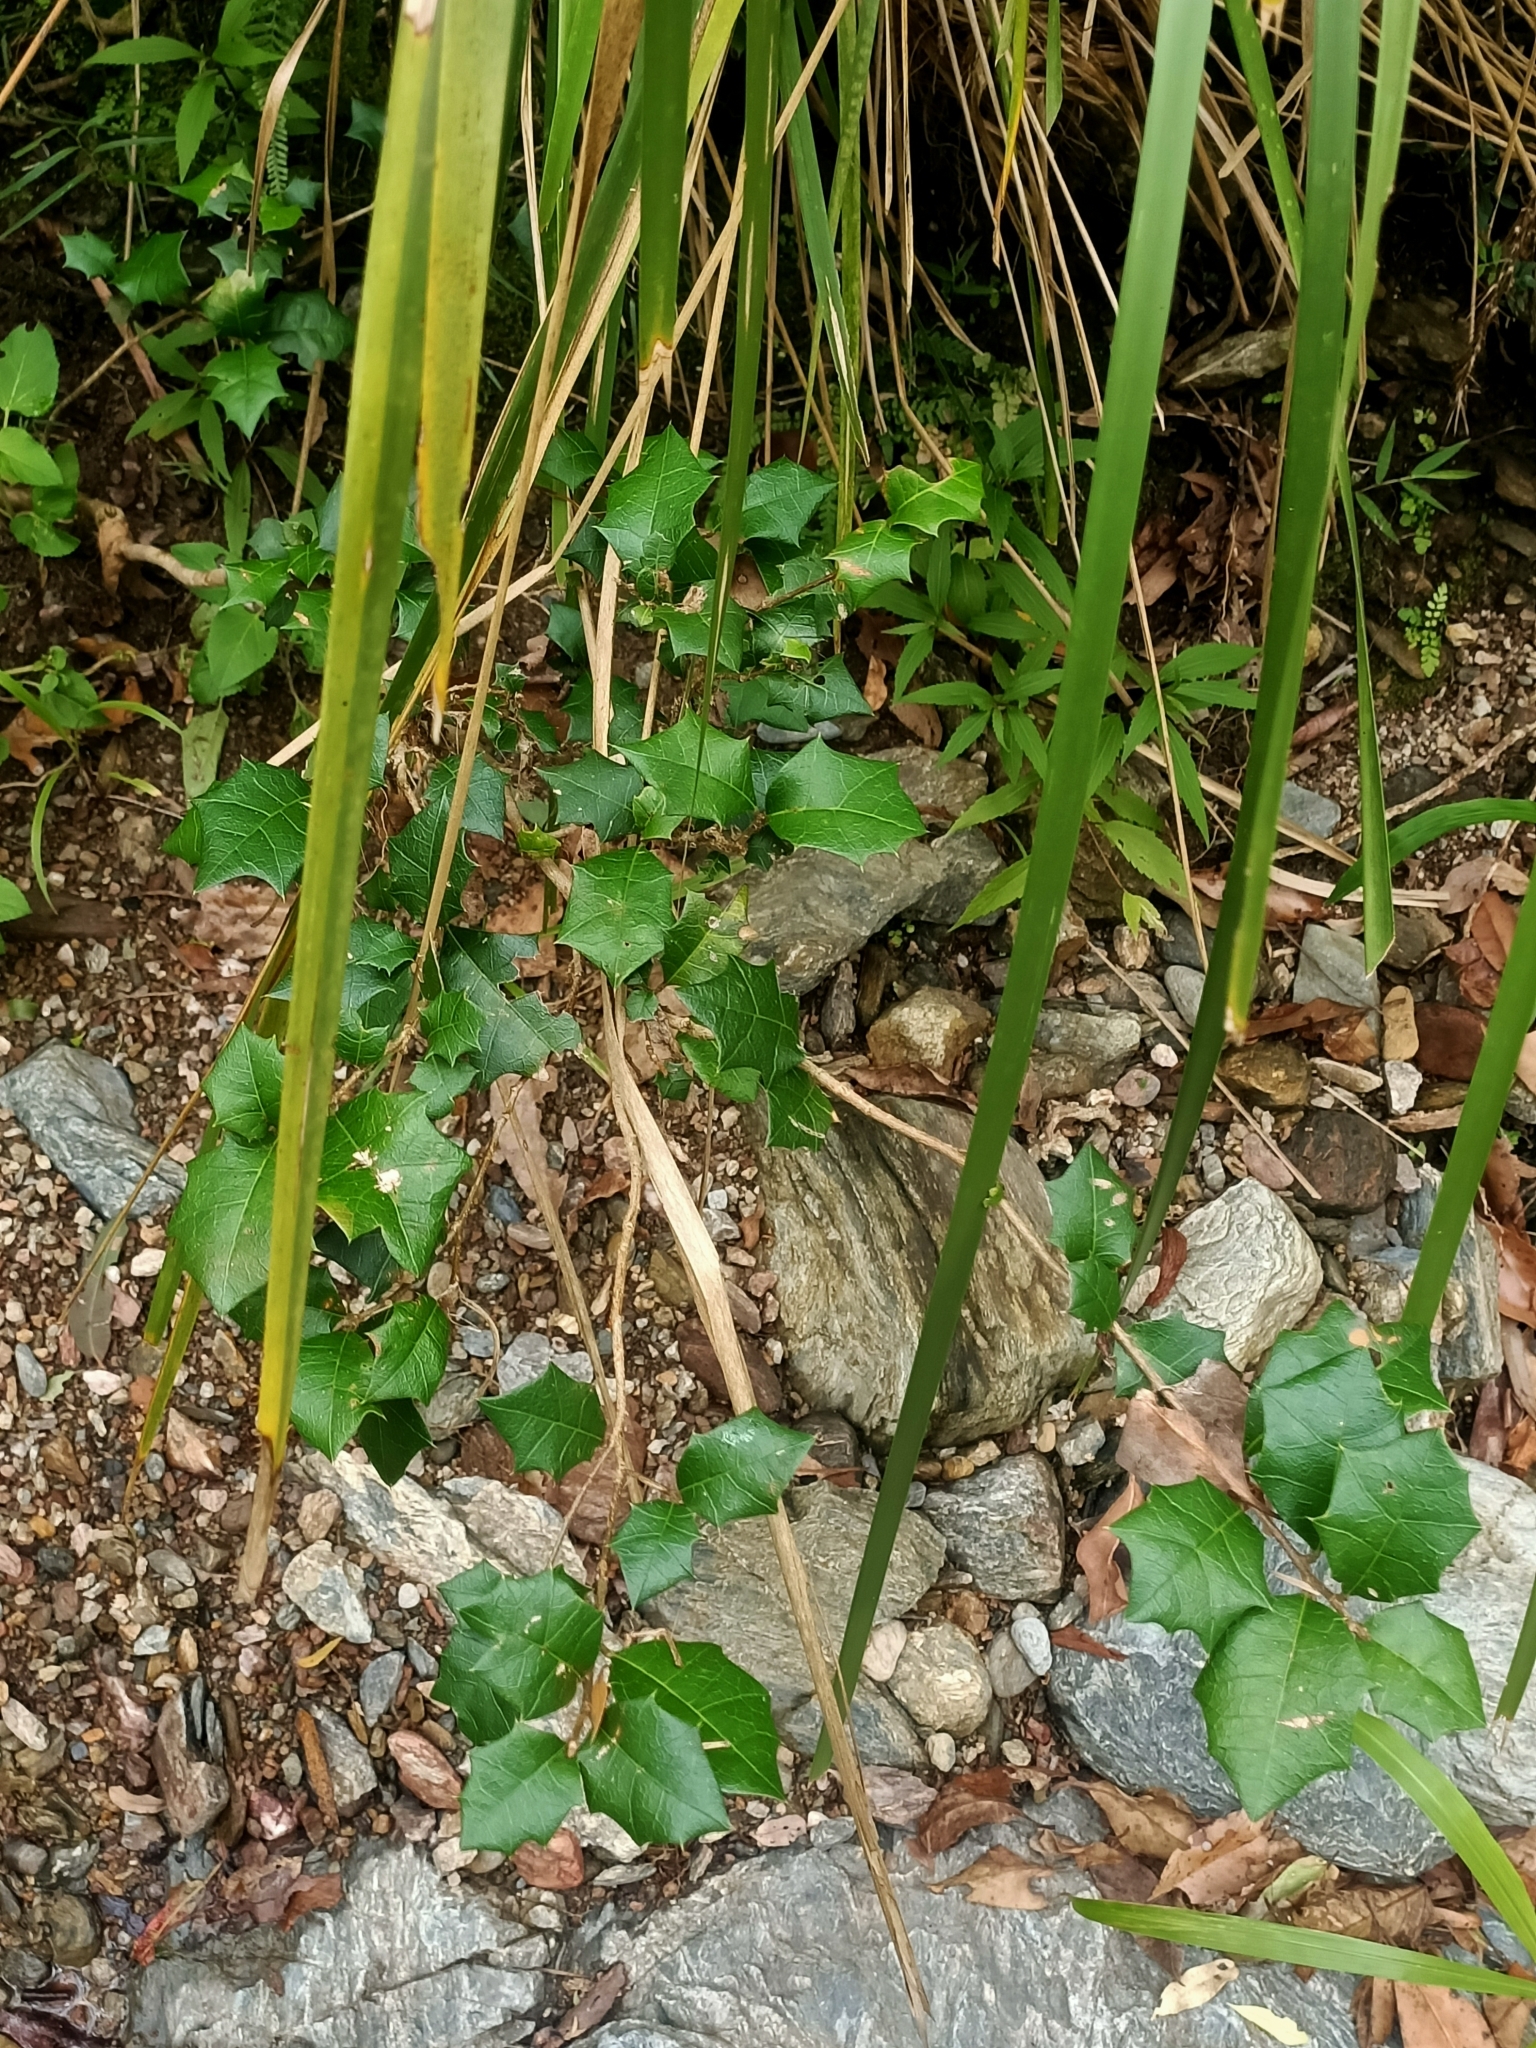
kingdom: Plantae
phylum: Tracheophyta
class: Magnoliopsida
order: Malpighiales
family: Euphorbiaceae
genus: Alchornea
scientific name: Alchornea ilicifolia
